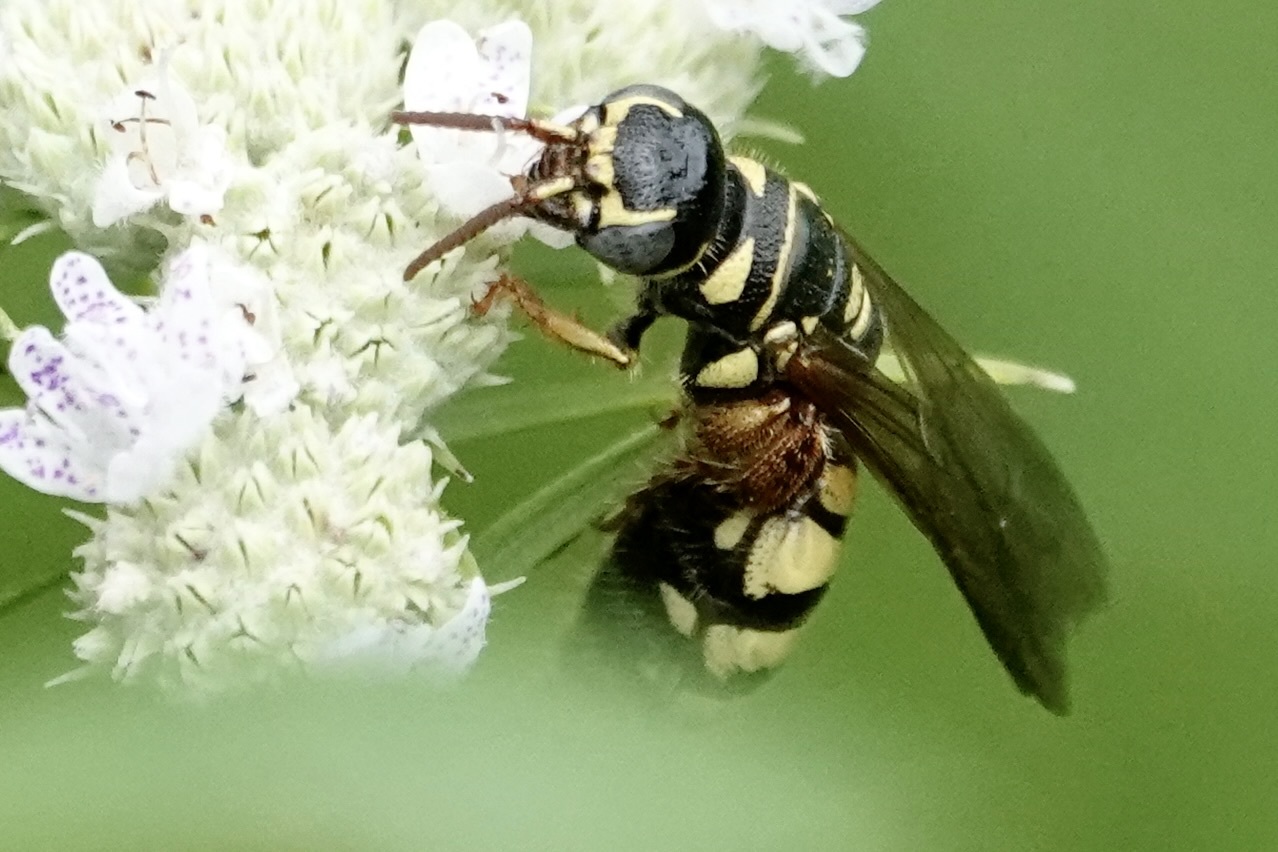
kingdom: Animalia
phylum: Arthropoda
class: Insecta
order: Hymenoptera
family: Tiphiidae
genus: Myzinum
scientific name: Myzinum quinquecinctum
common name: Five-banded thynnid wasp
